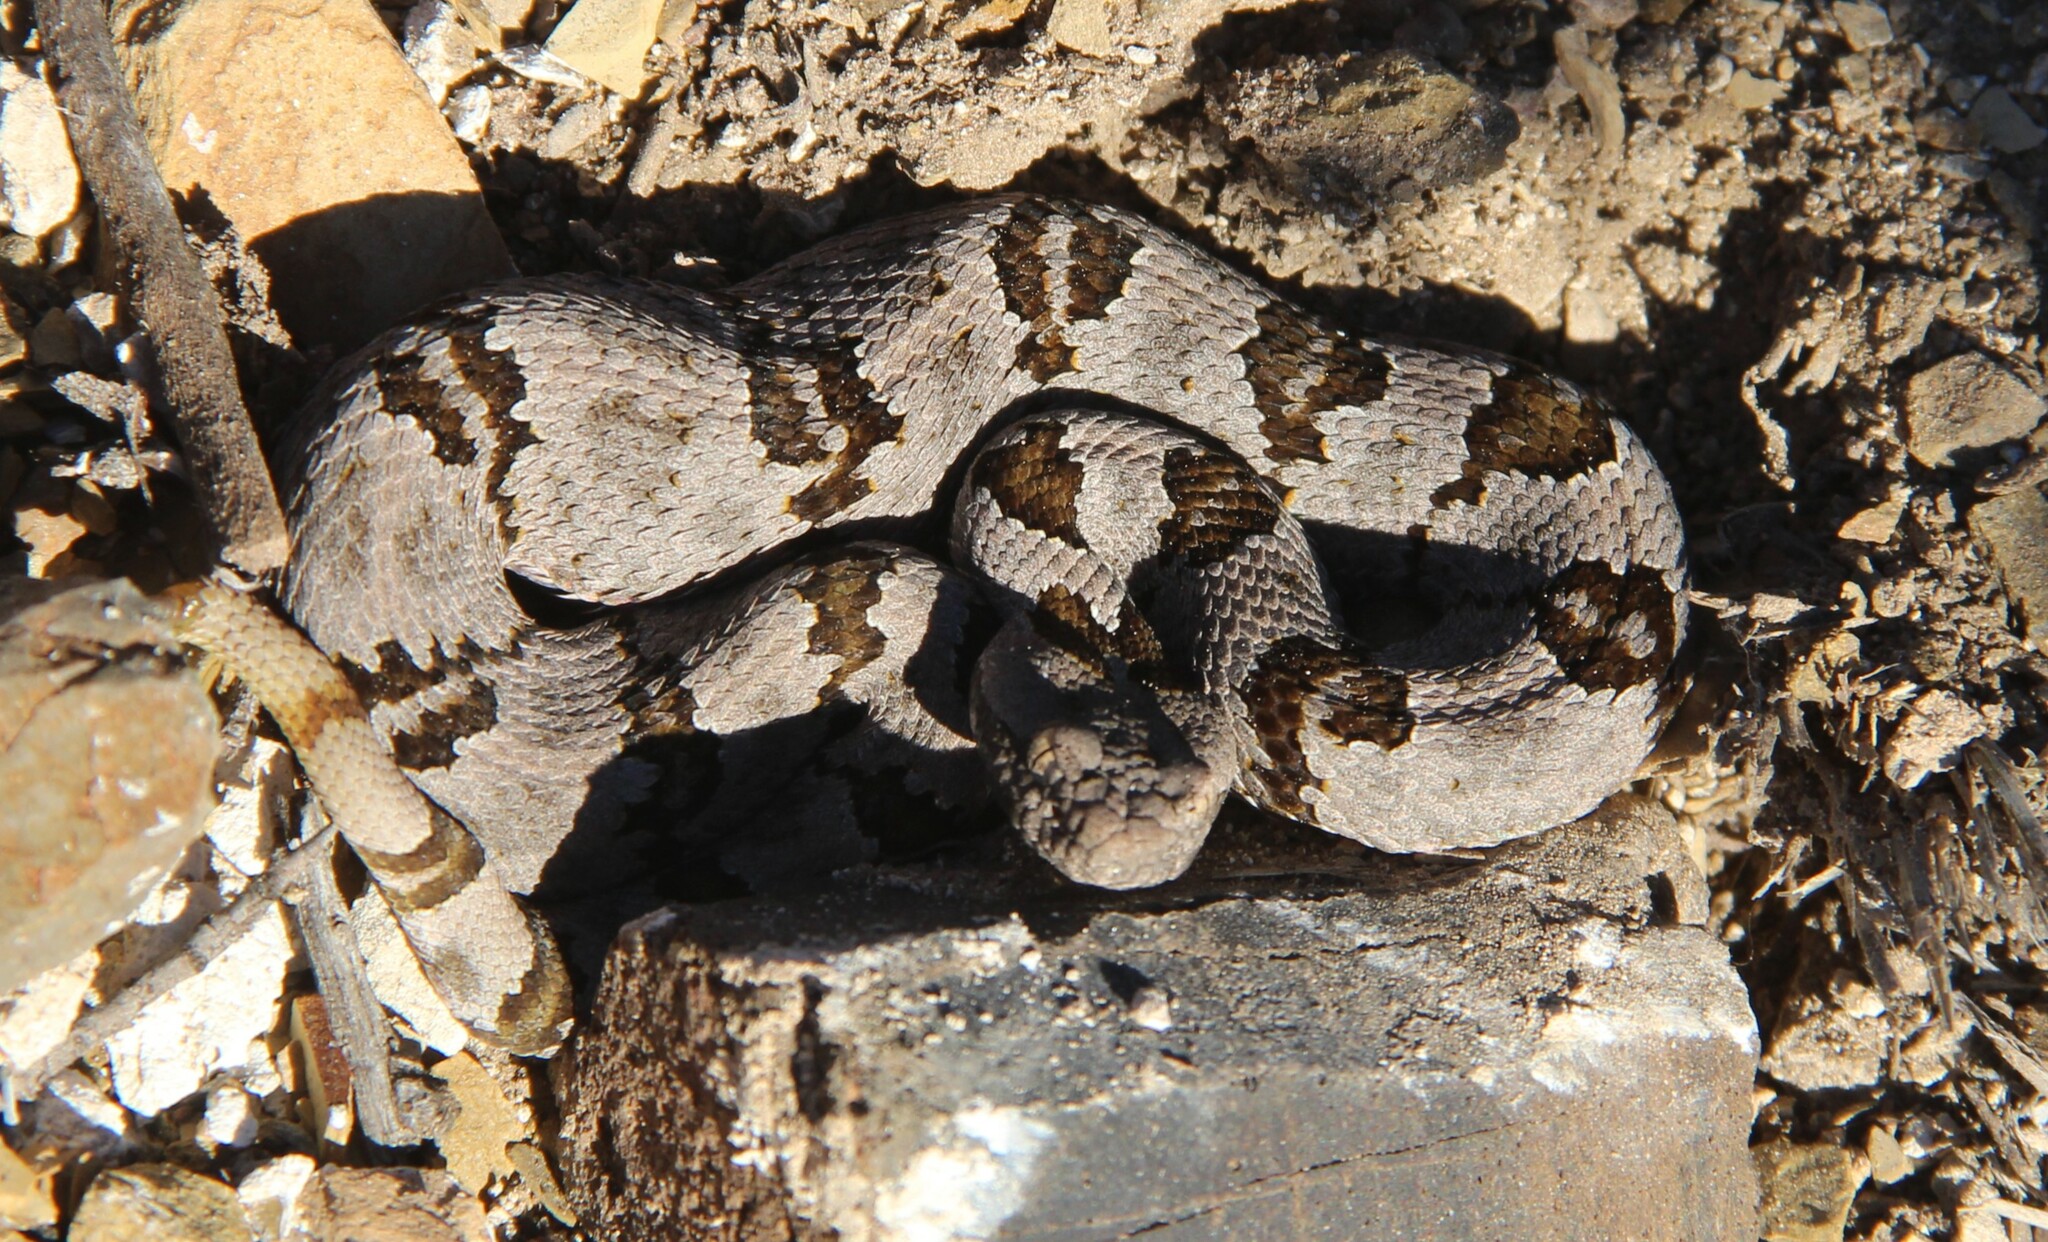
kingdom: Animalia
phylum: Chordata
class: Squamata
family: Viperidae
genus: Crotalus
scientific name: Crotalus lepidus
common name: Rock rattlesnake
